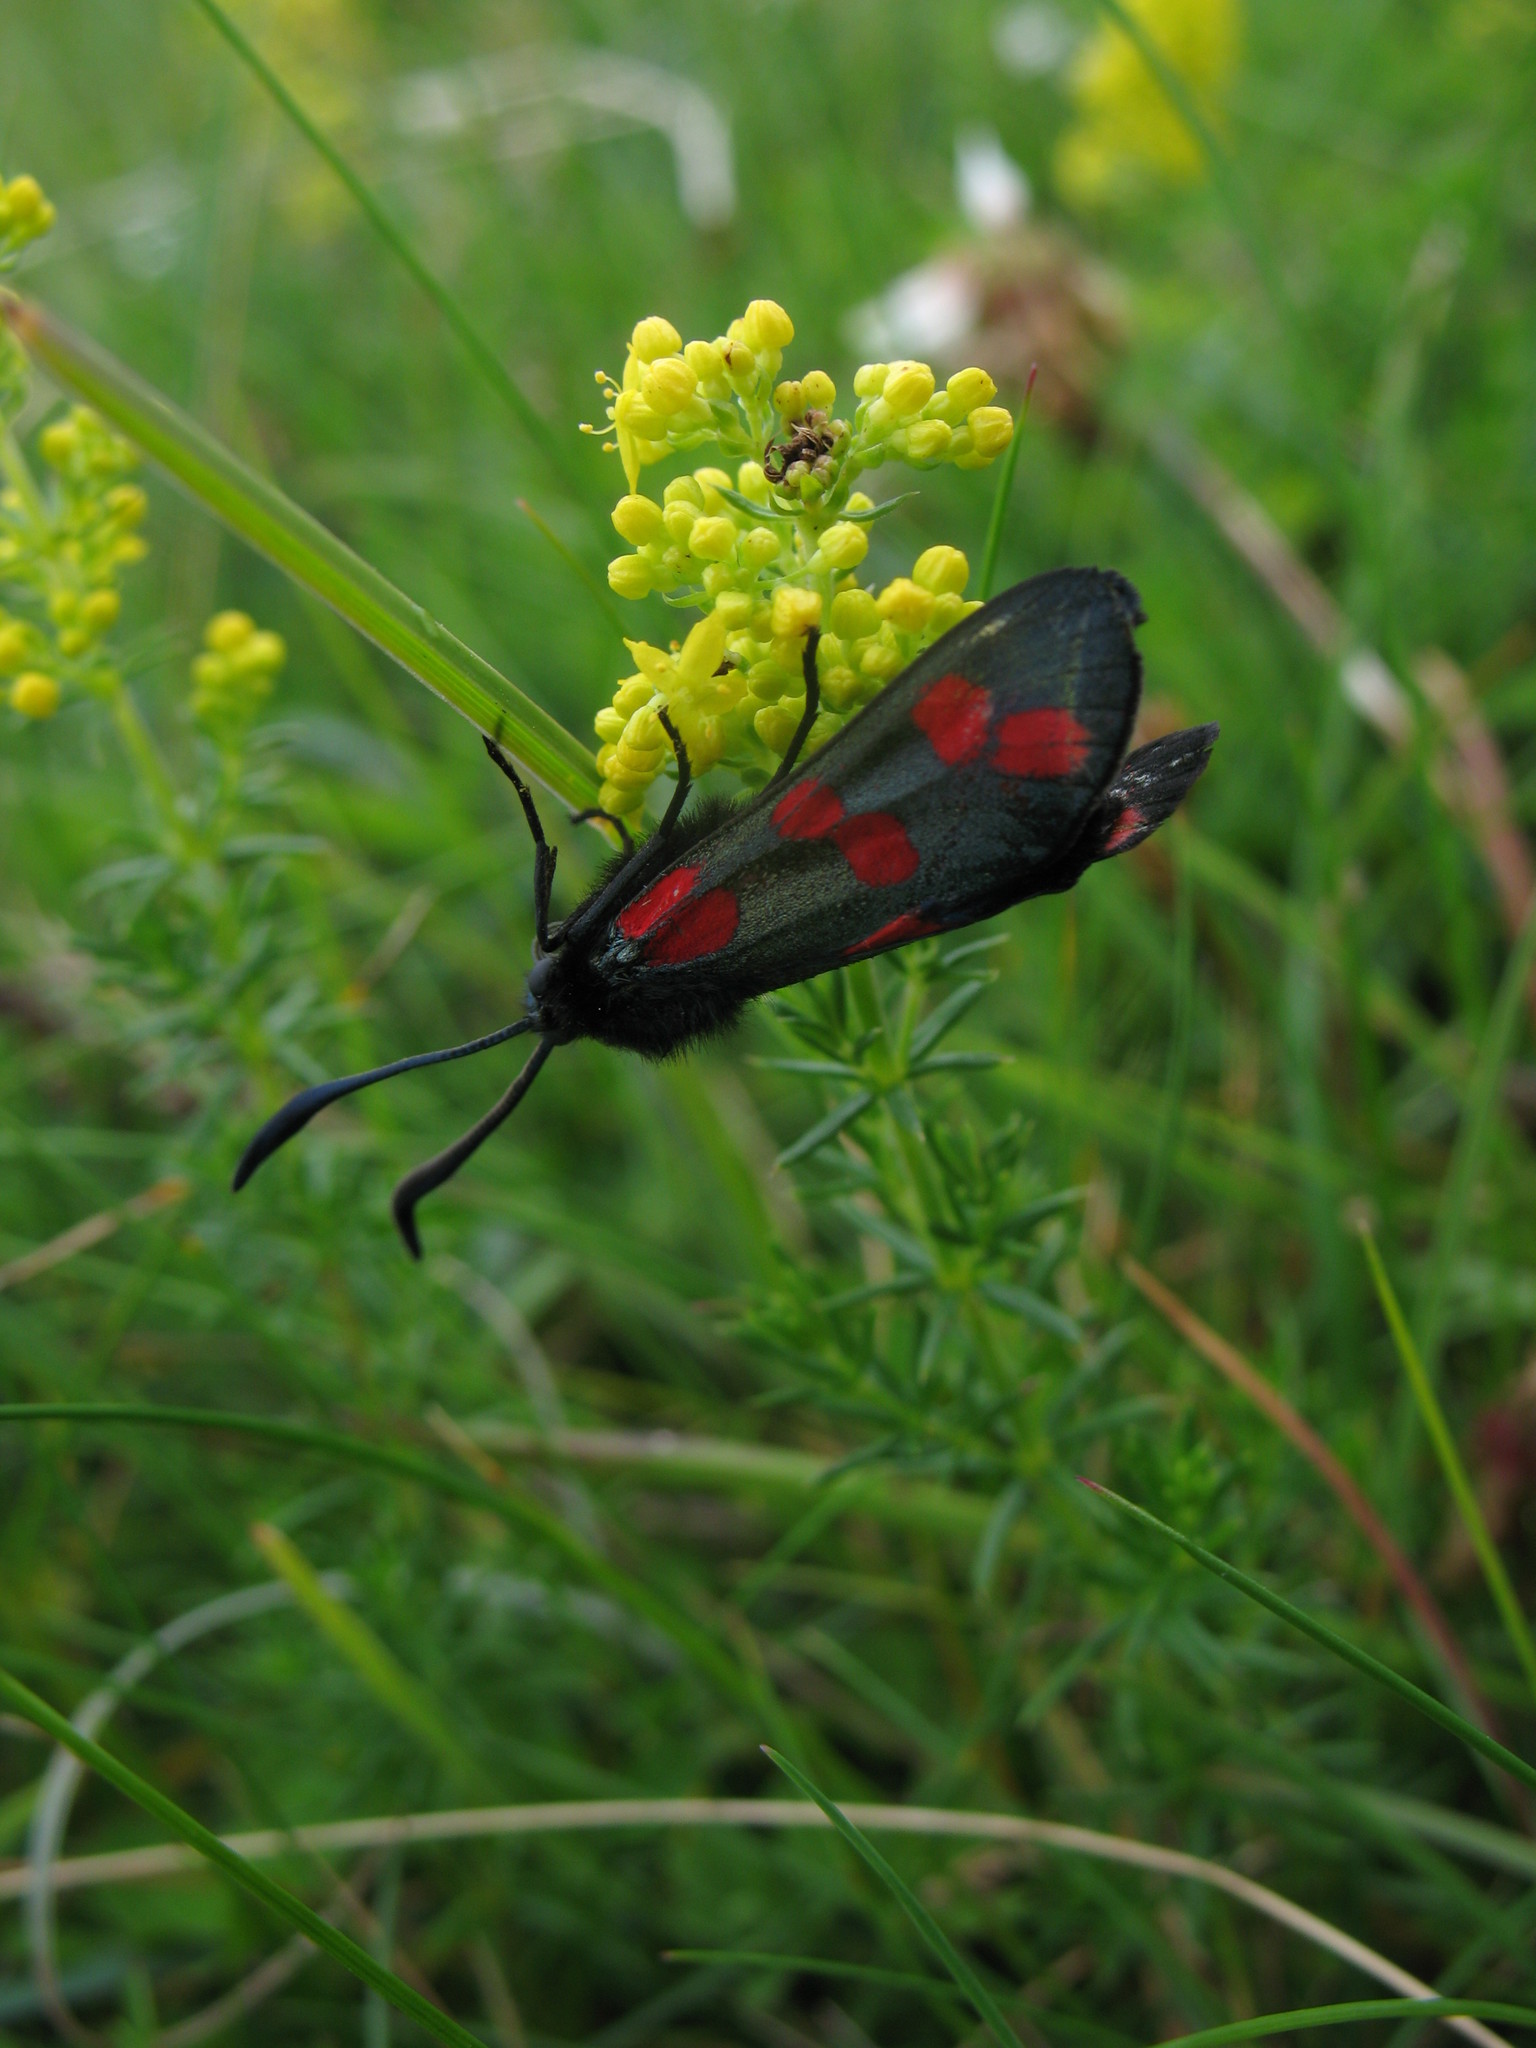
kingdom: Animalia
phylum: Arthropoda
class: Insecta
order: Lepidoptera
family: Zygaenidae
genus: Zygaena
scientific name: Zygaena filipendulae
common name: Six-spot burnet
